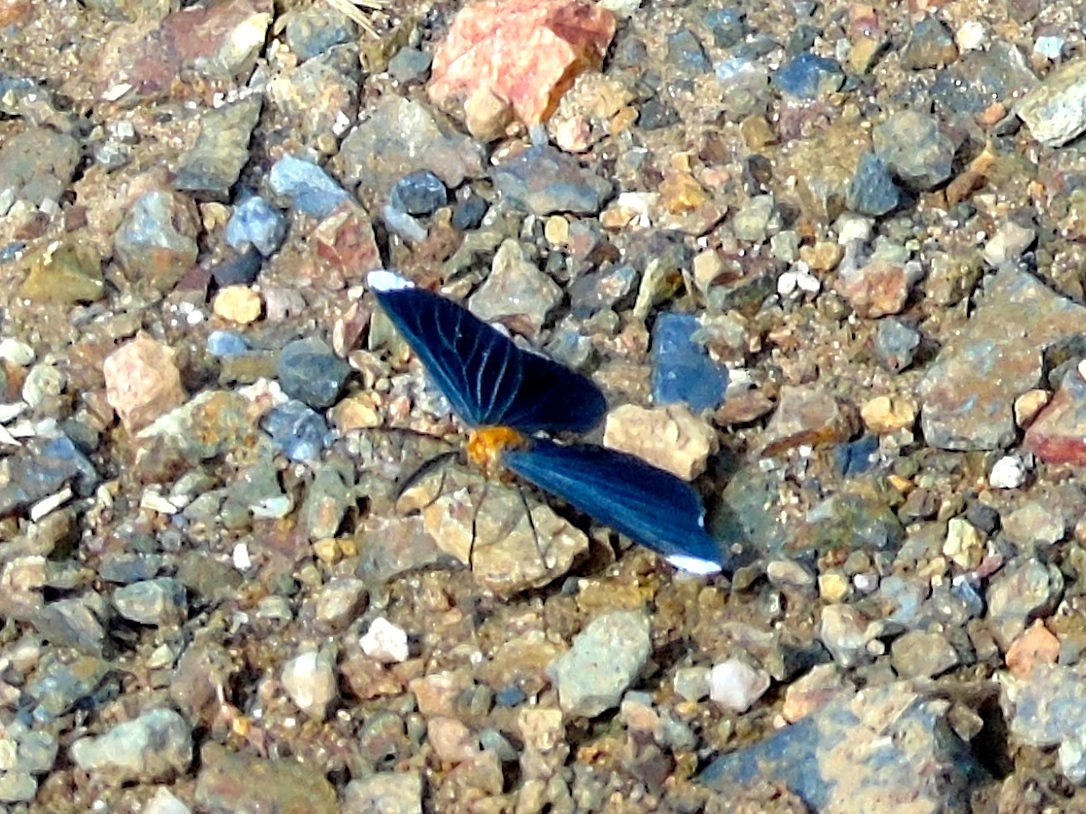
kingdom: Animalia
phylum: Arthropoda
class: Insecta
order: Lepidoptera
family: Geometridae
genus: Melanchroia
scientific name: Melanchroia chephise
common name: White-tipped black
